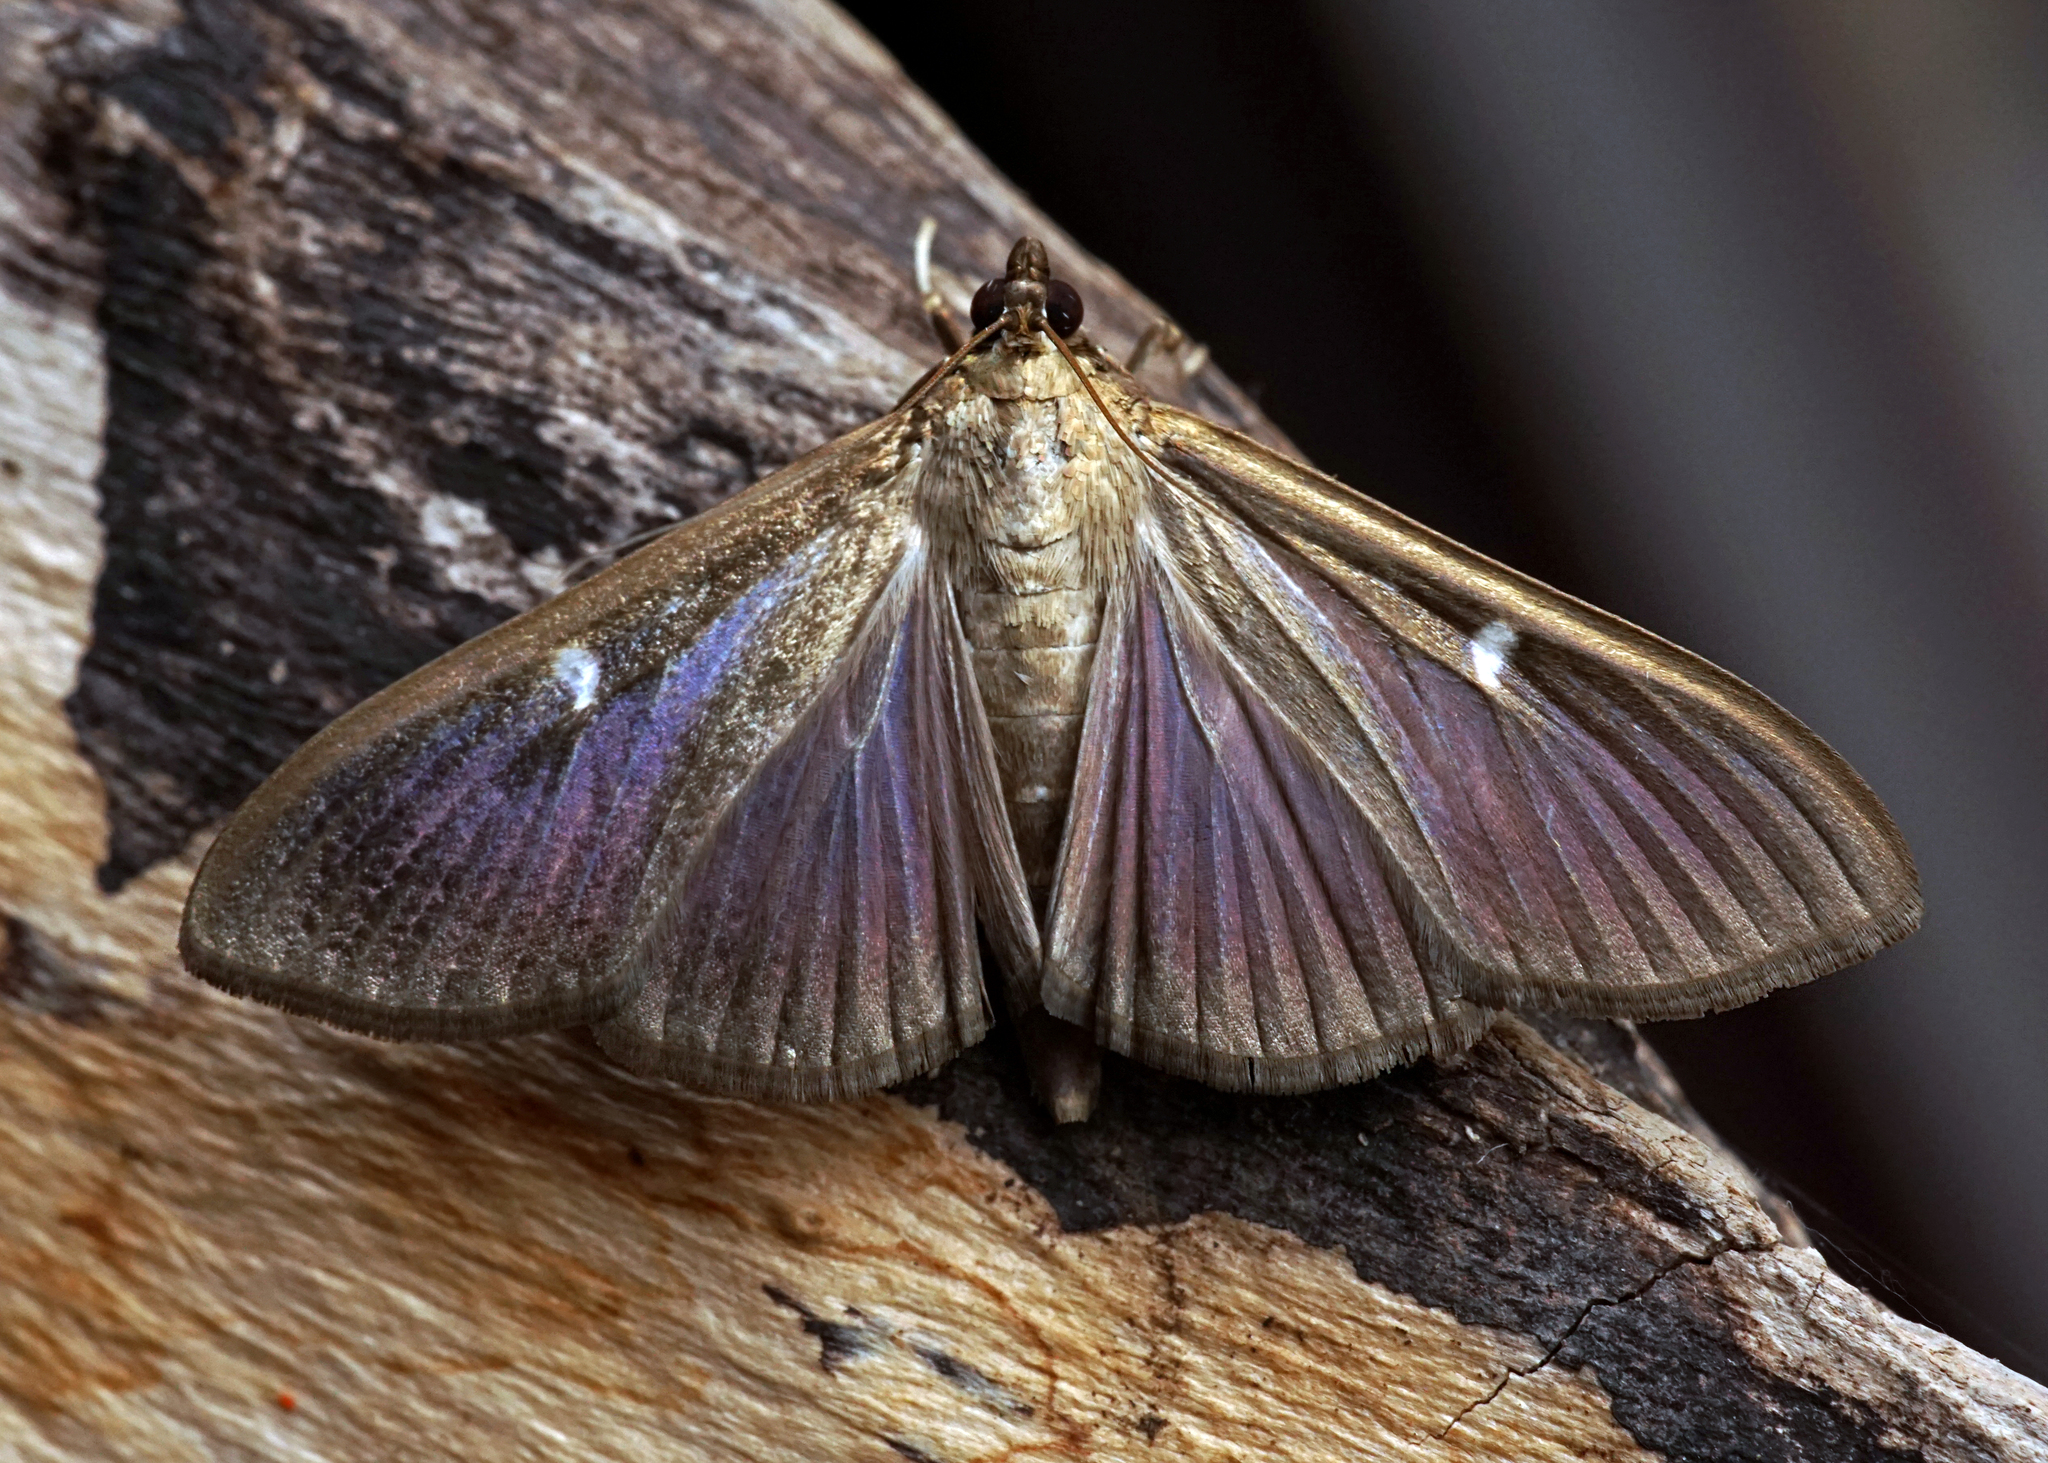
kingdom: Animalia
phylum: Arthropoda
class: Insecta
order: Lepidoptera
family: Crambidae
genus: Cydalima
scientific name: Cydalima perspectalis
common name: Box tree moth
